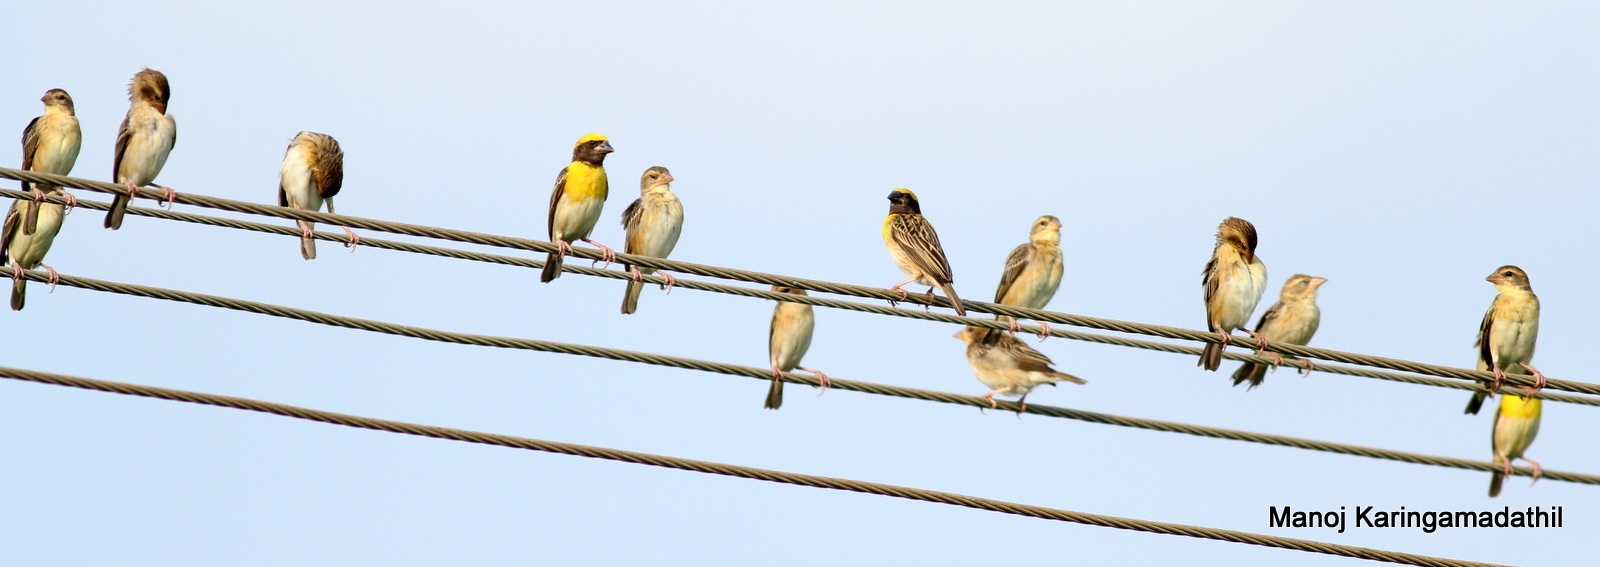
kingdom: Animalia
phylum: Chordata
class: Aves
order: Passeriformes
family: Ploceidae
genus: Ploceus
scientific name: Ploceus philippinus
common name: Baya weaver
